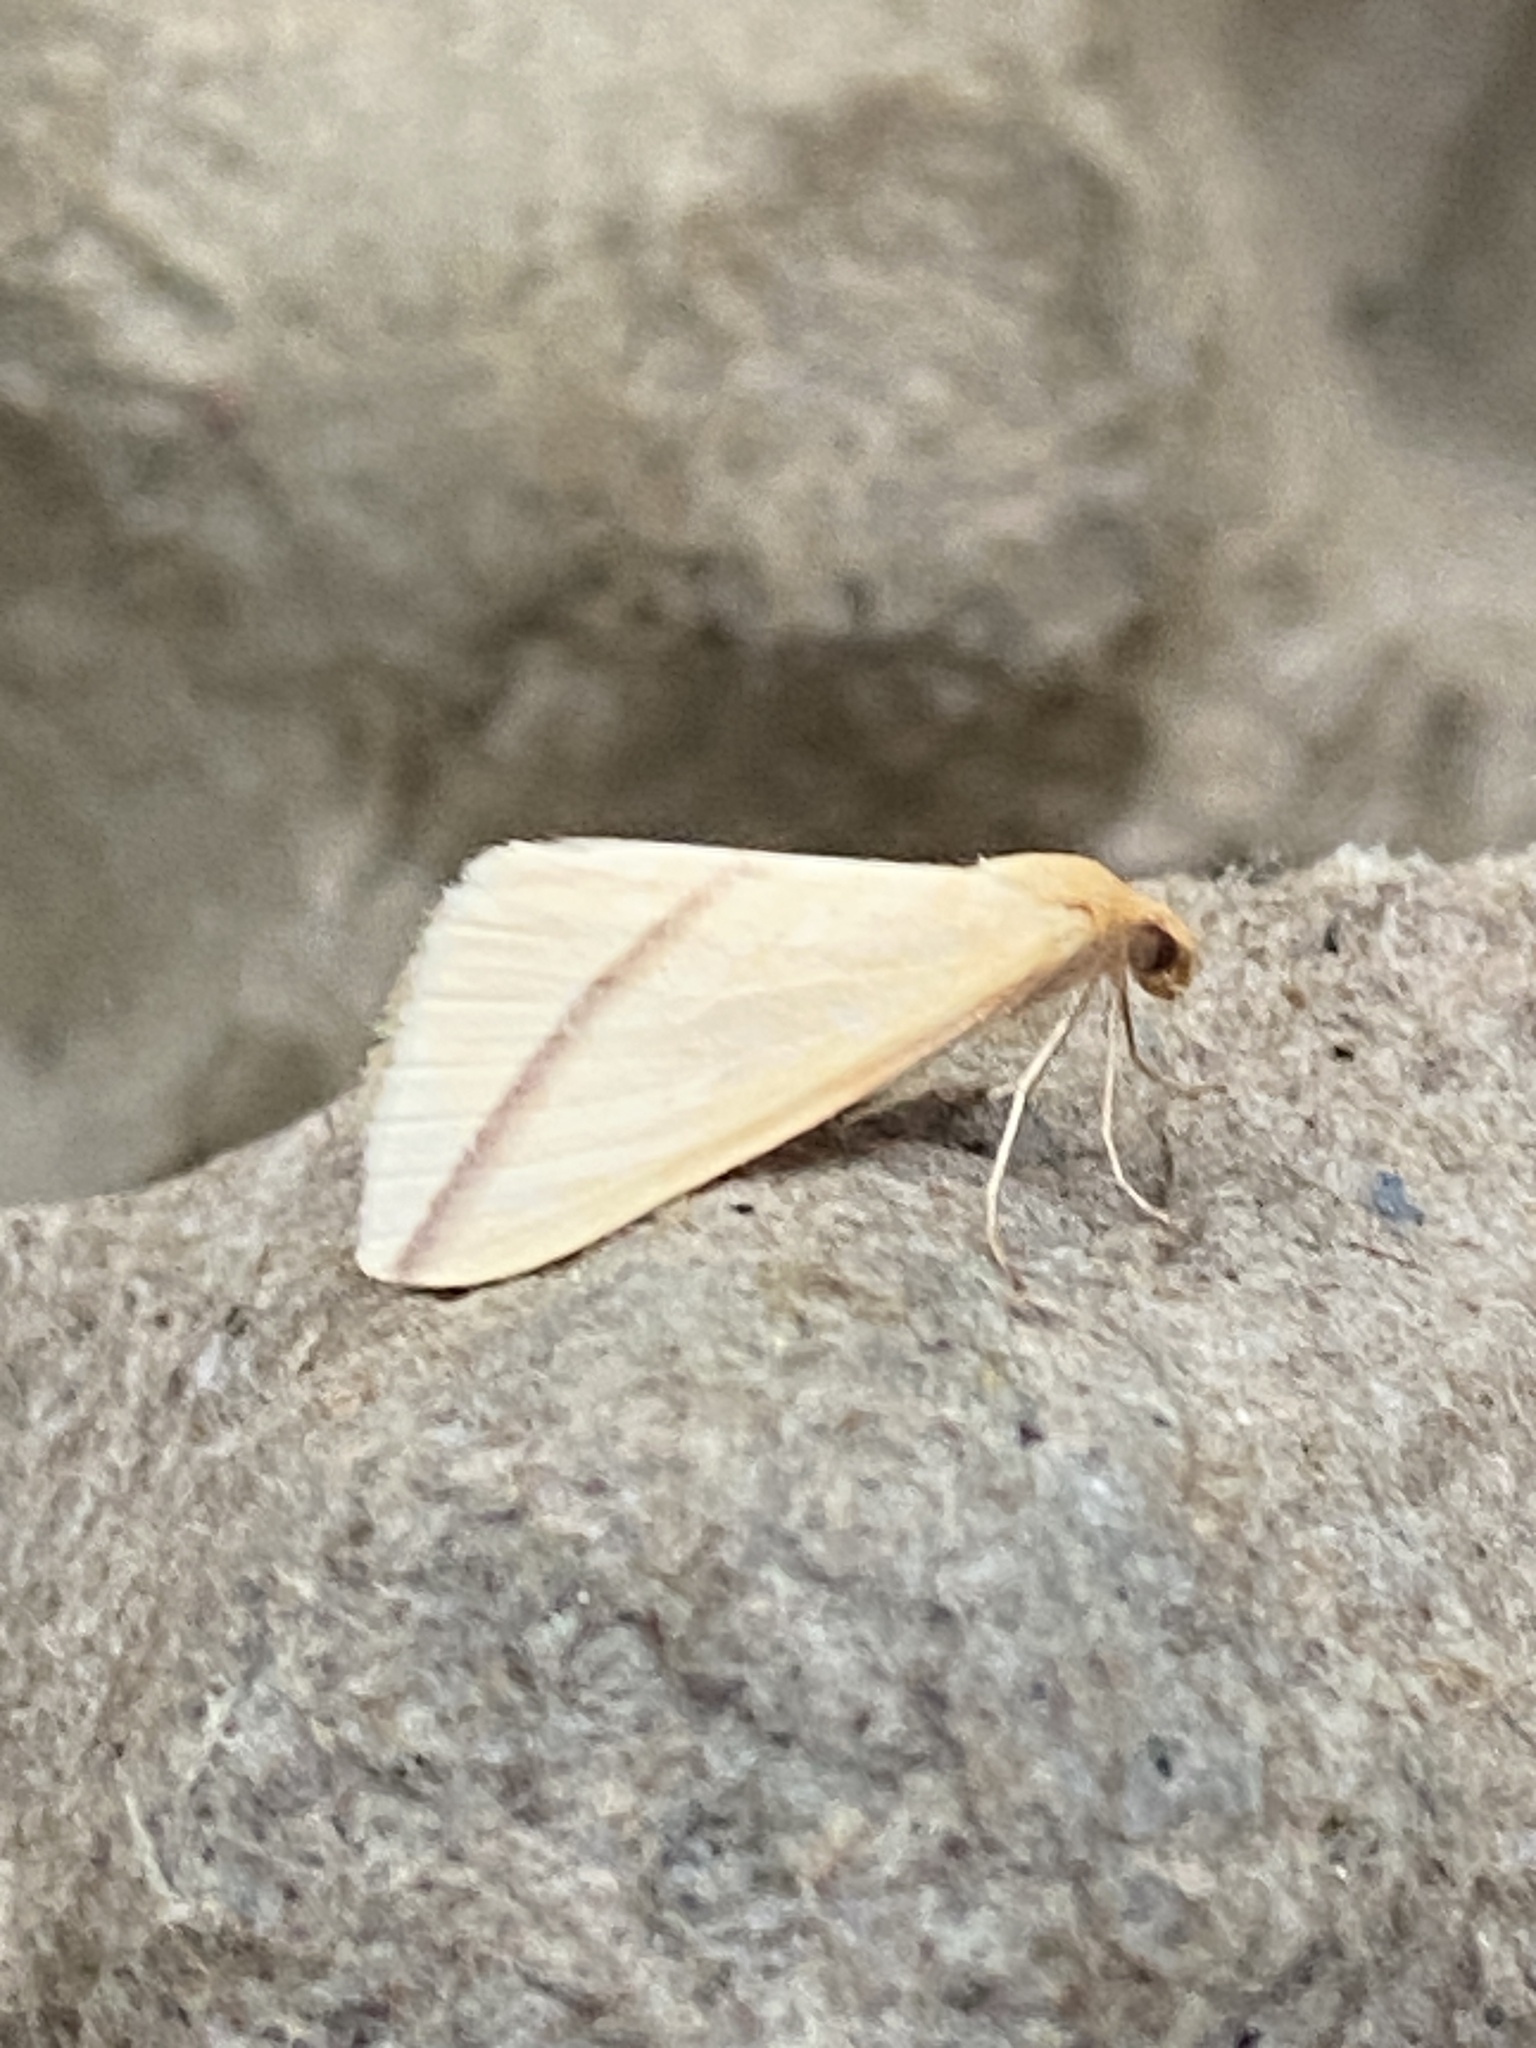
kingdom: Animalia
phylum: Arthropoda
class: Insecta
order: Lepidoptera
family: Geometridae
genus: Rhodometra
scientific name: Rhodometra sacraria
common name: Vestal
